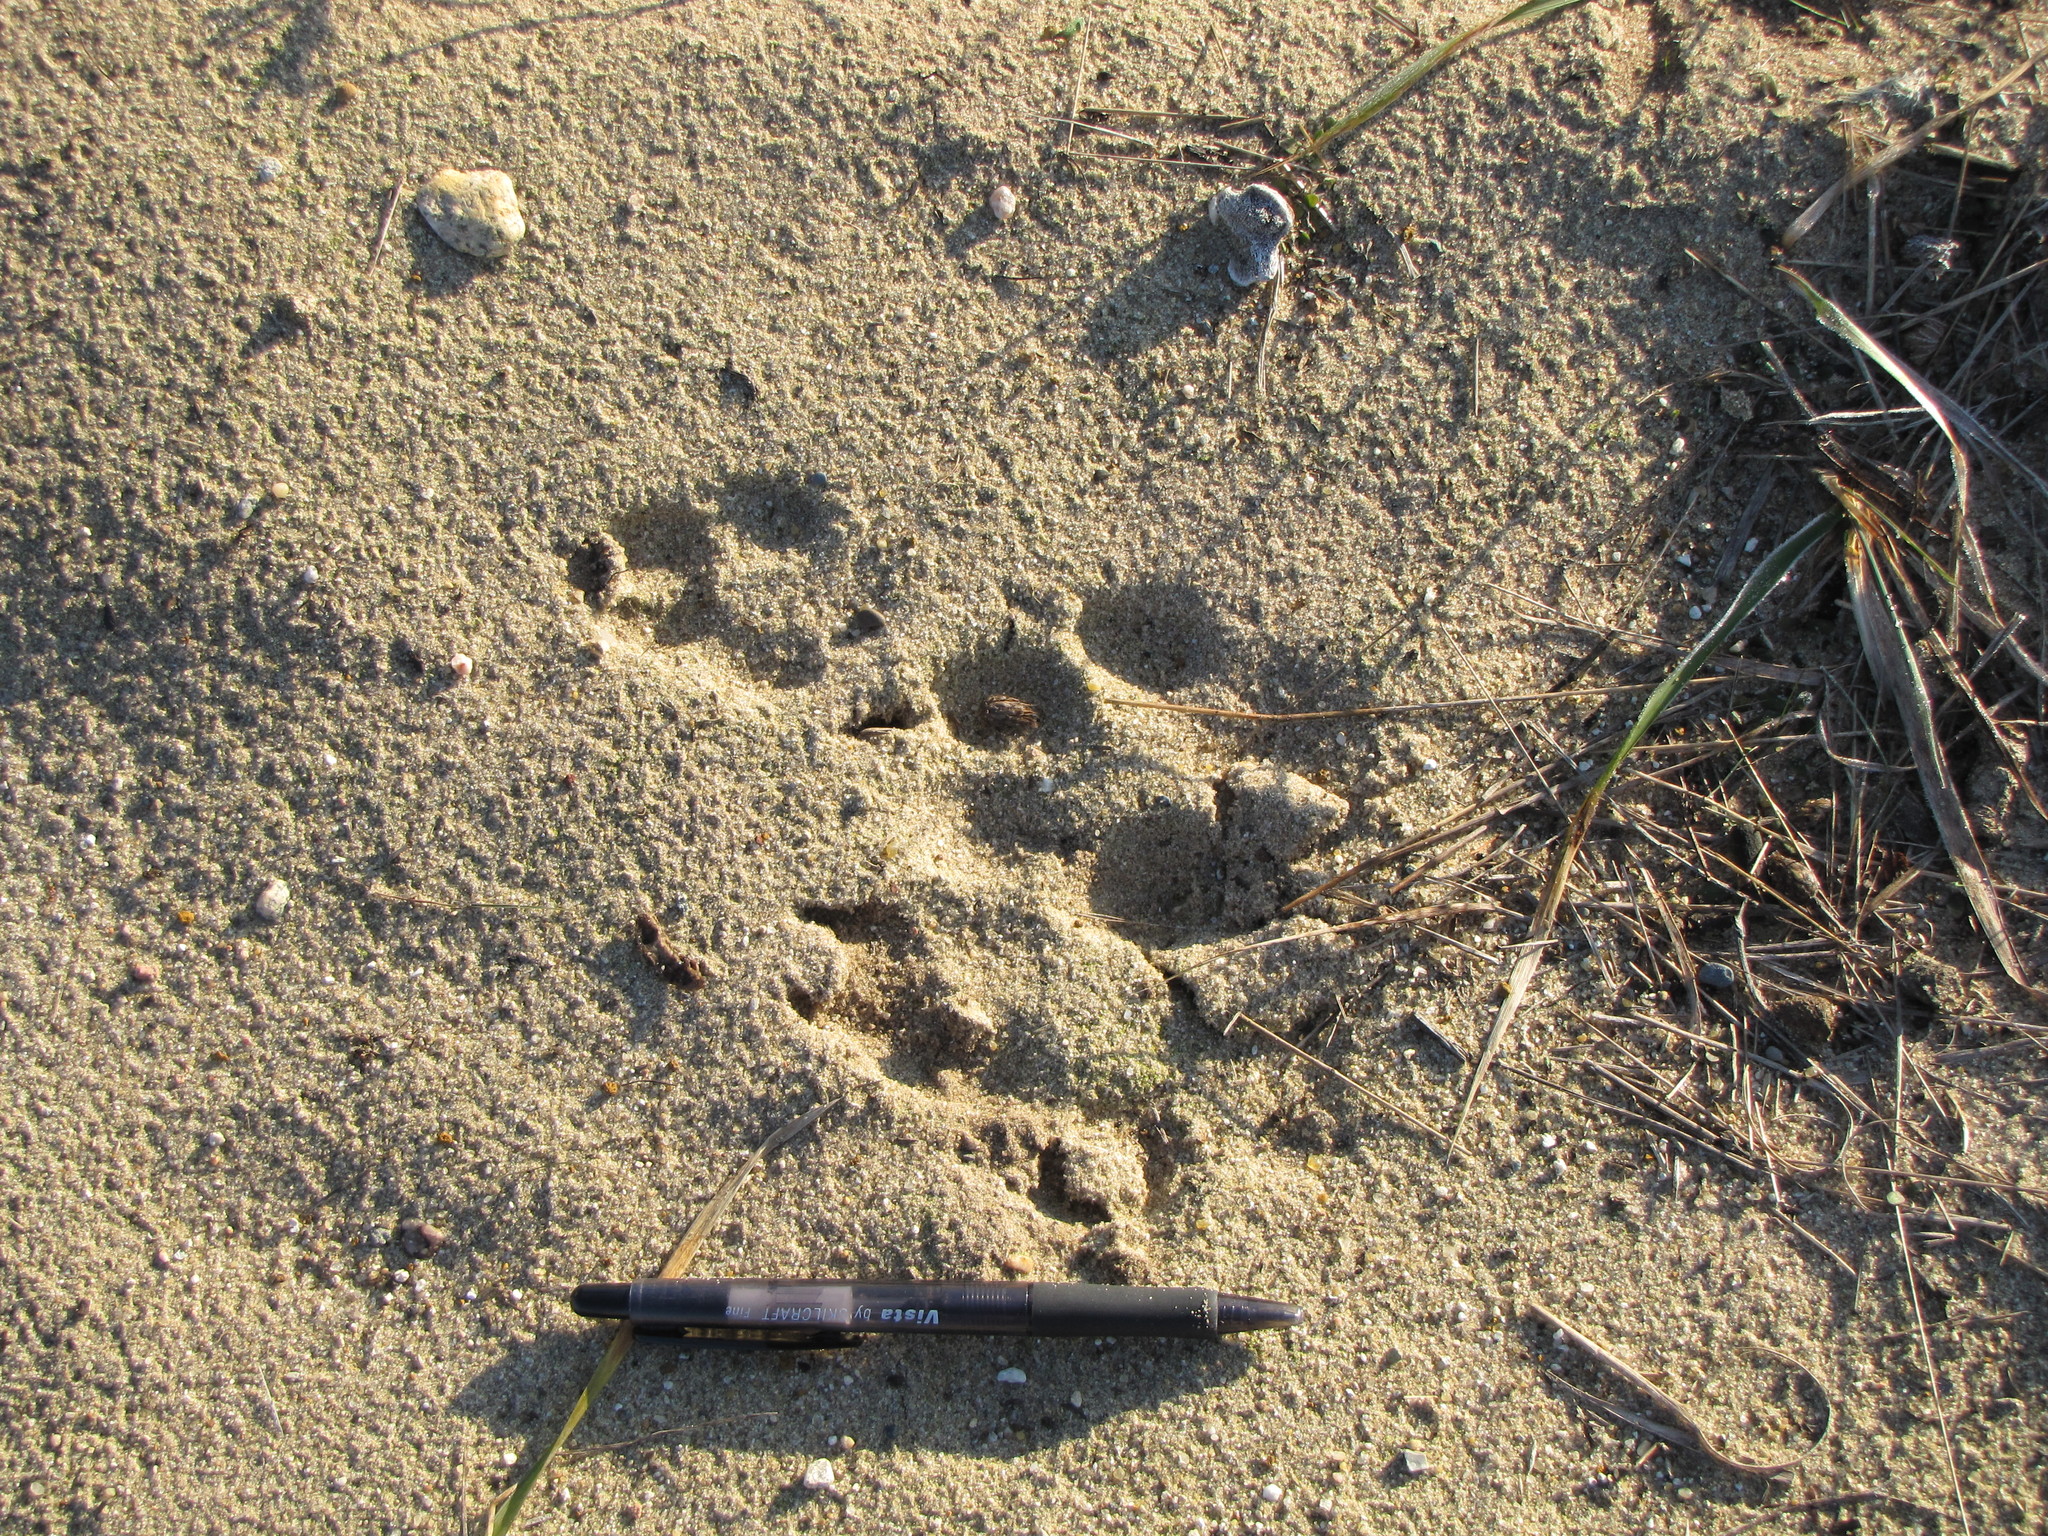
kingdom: Animalia
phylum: Chordata
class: Mammalia
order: Carnivora
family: Canidae
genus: Canis
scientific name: Canis lupus
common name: Gray wolf
